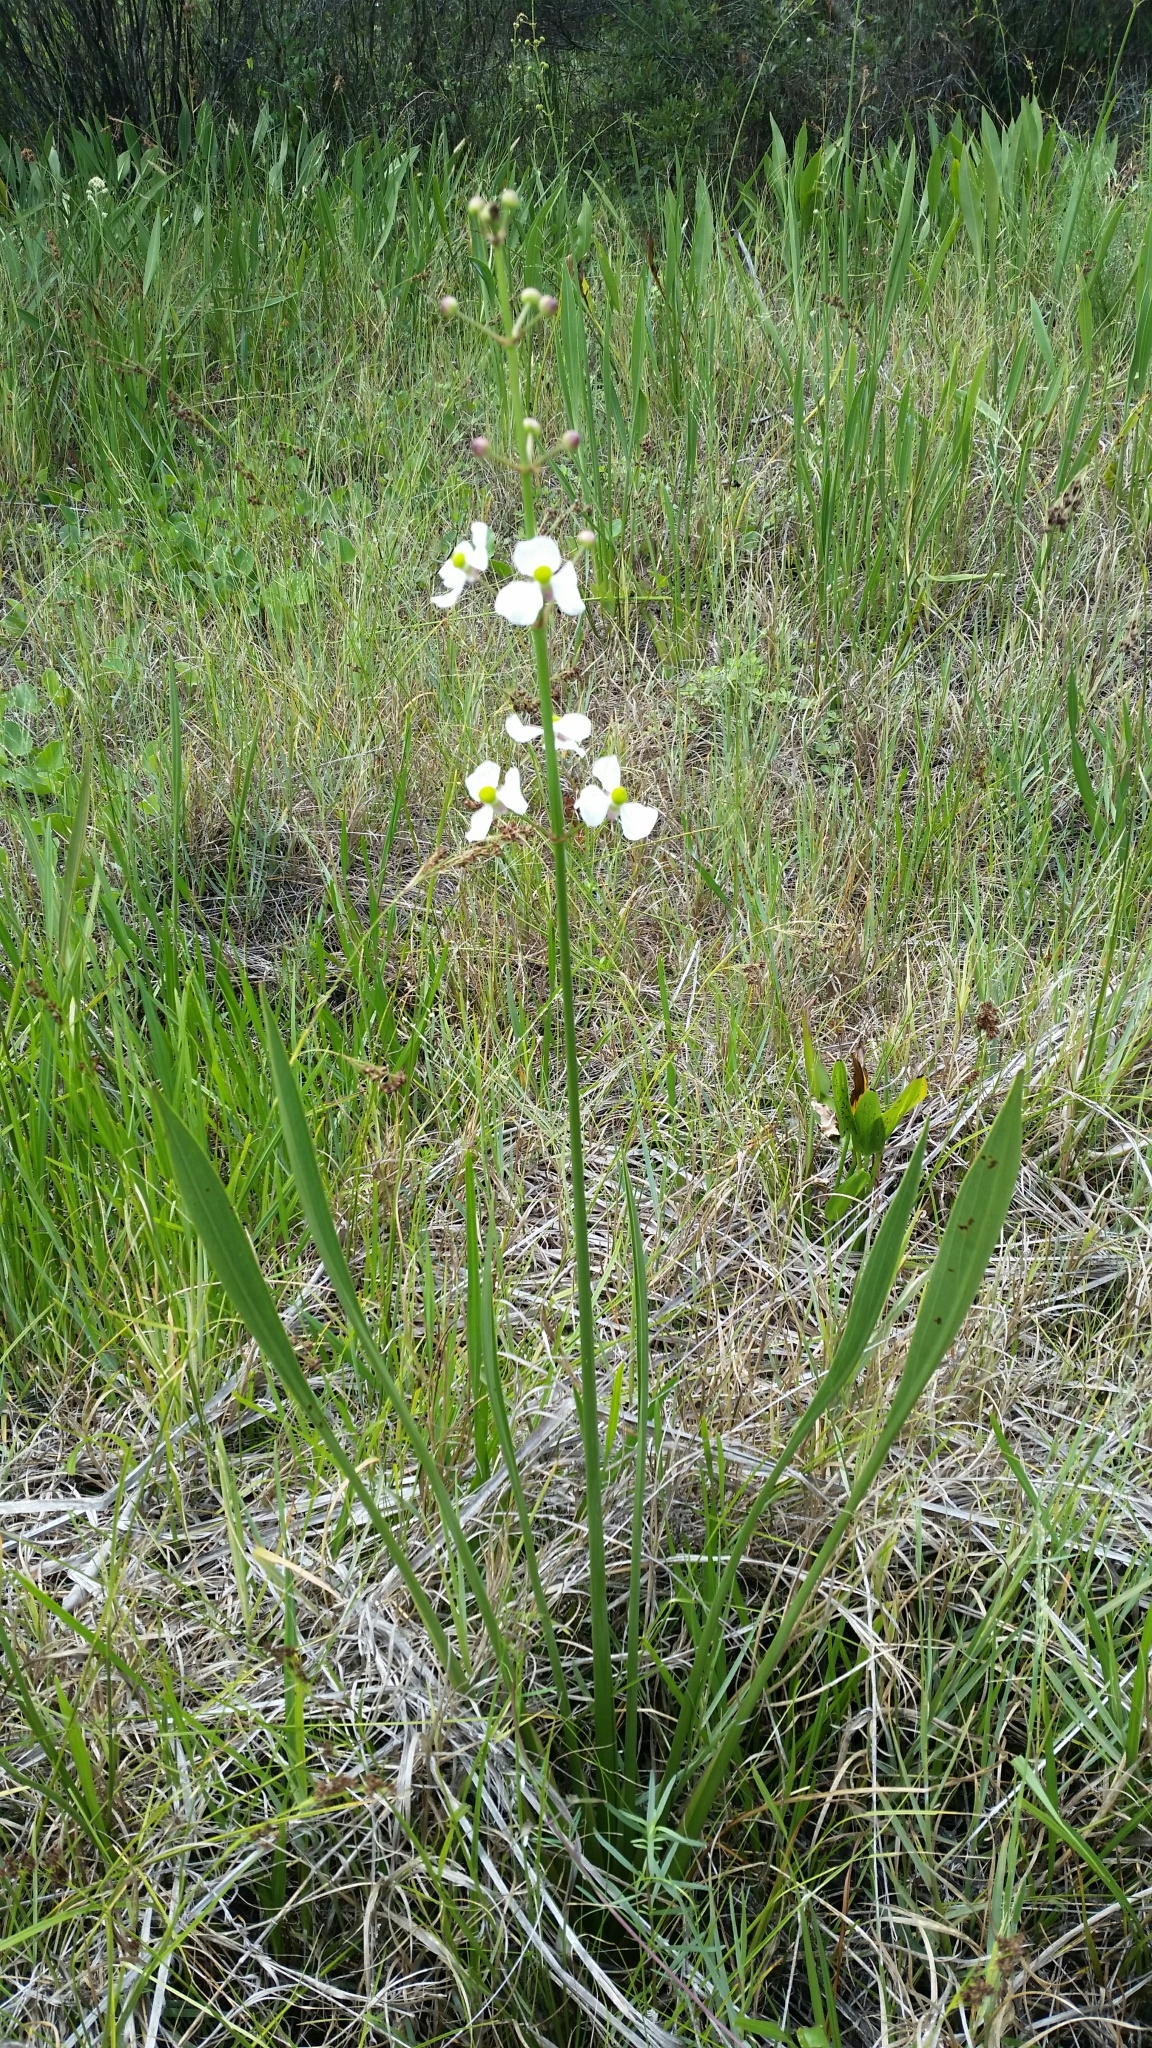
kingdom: Plantae
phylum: Tracheophyta
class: Liliopsida
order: Alismatales
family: Alismataceae
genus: Sagittaria
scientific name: Sagittaria lancifolia
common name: Lance-leaf arrowhead
